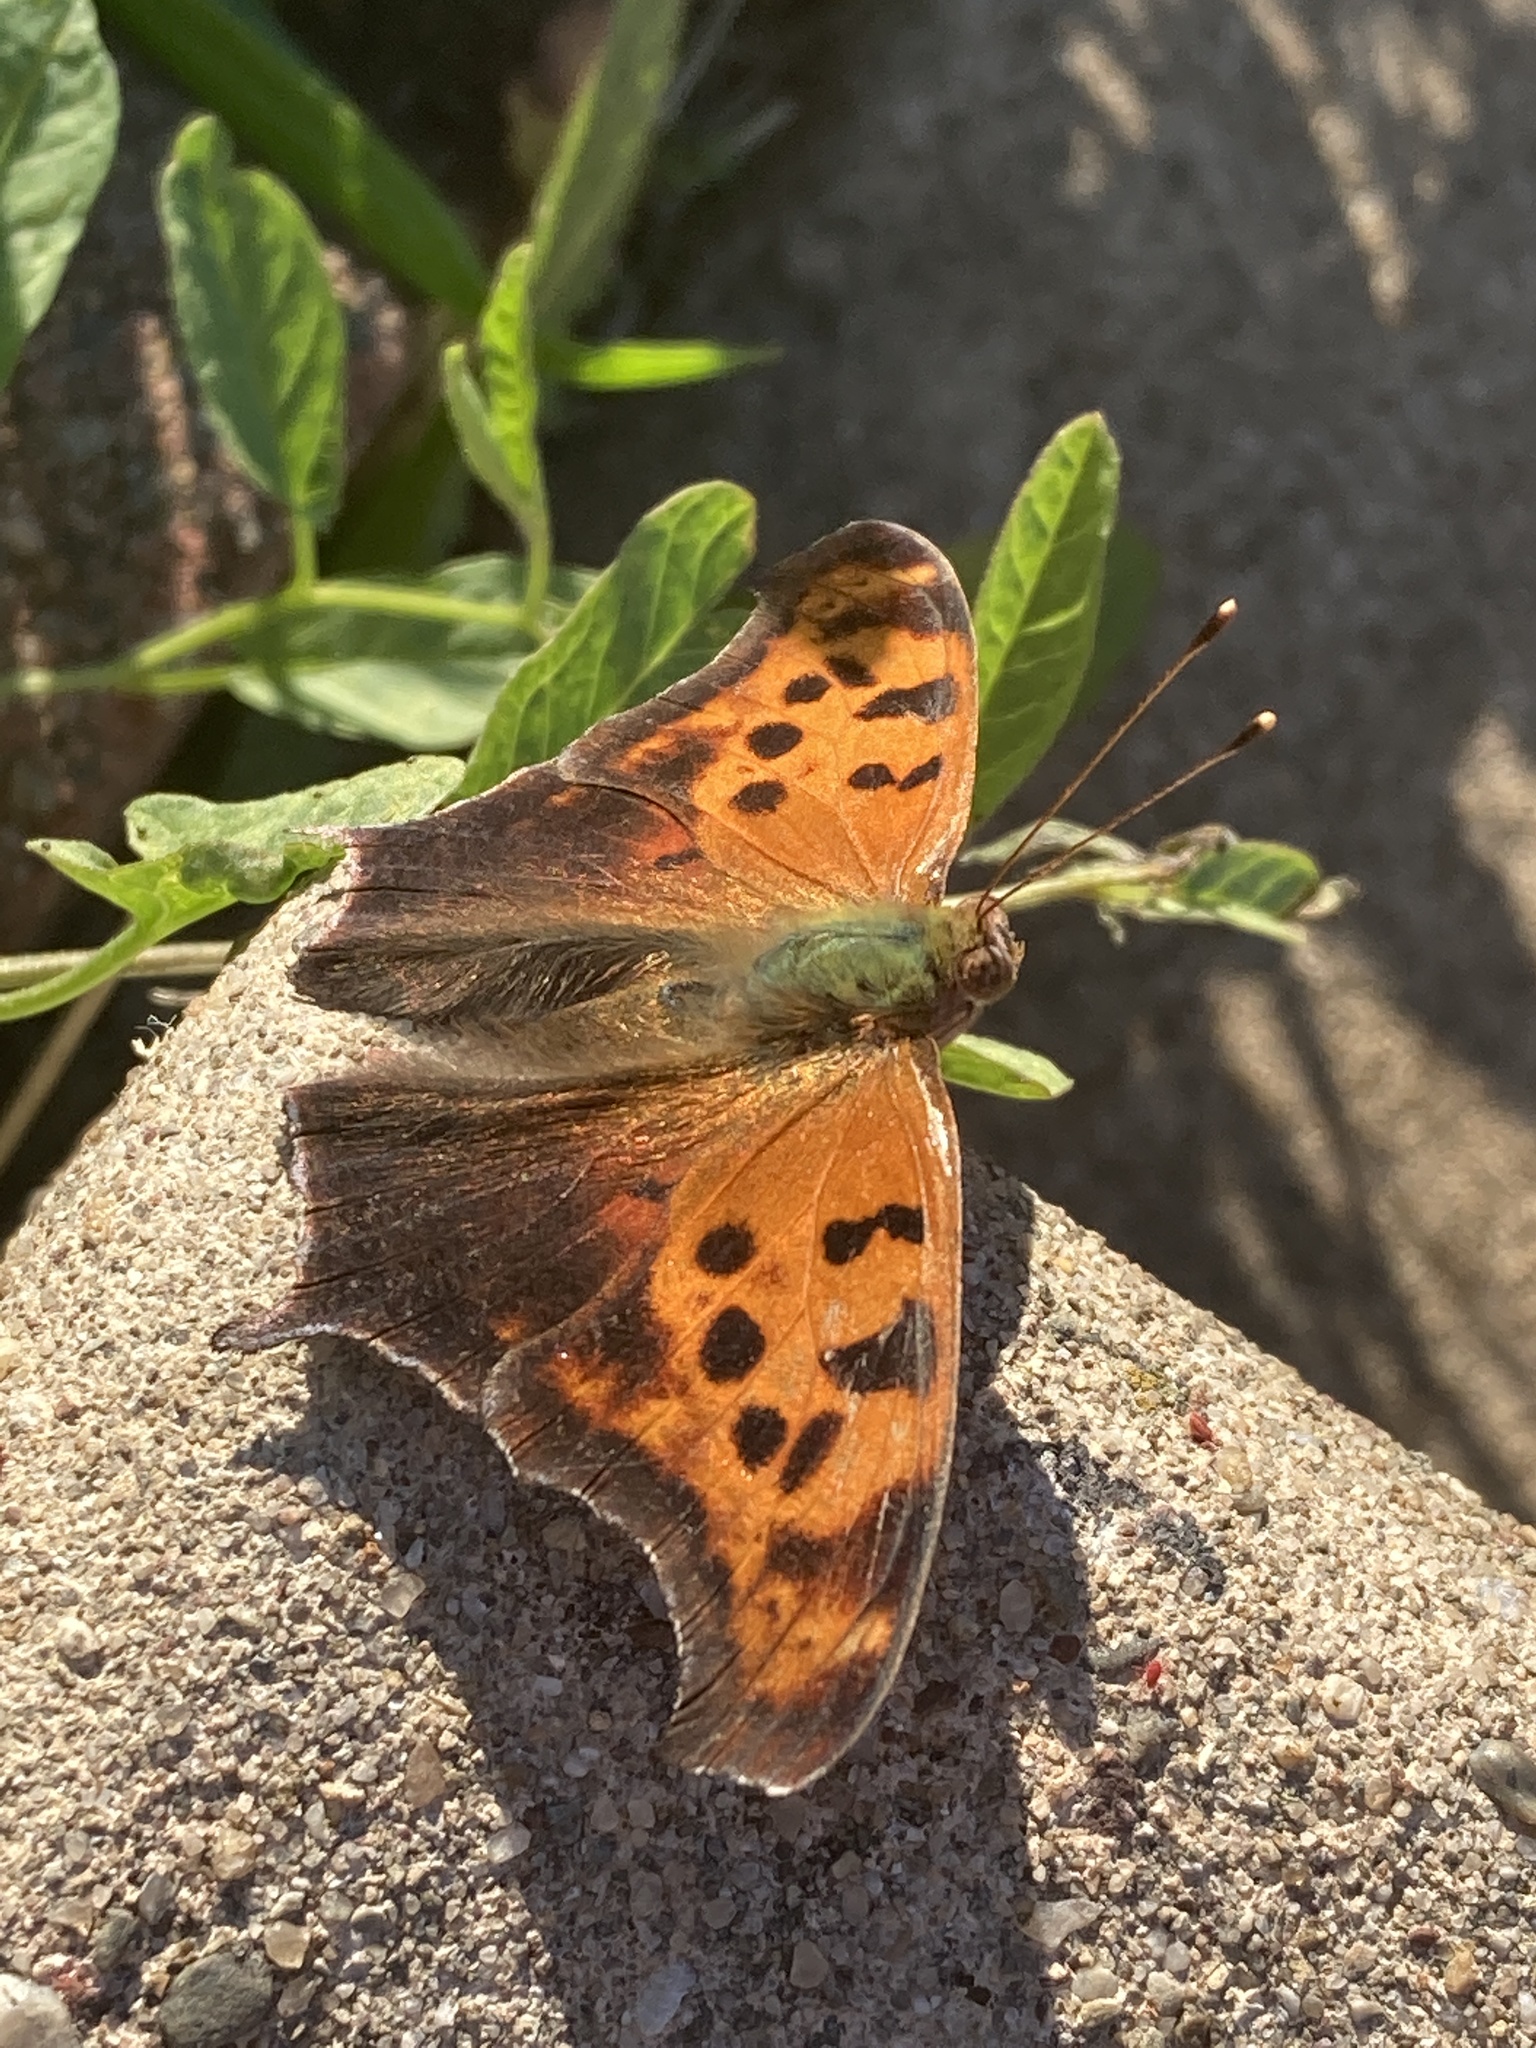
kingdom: Animalia
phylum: Arthropoda
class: Insecta
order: Lepidoptera
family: Nymphalidae
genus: Polygonia
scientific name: Polygonia interrogationis
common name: Question mark
